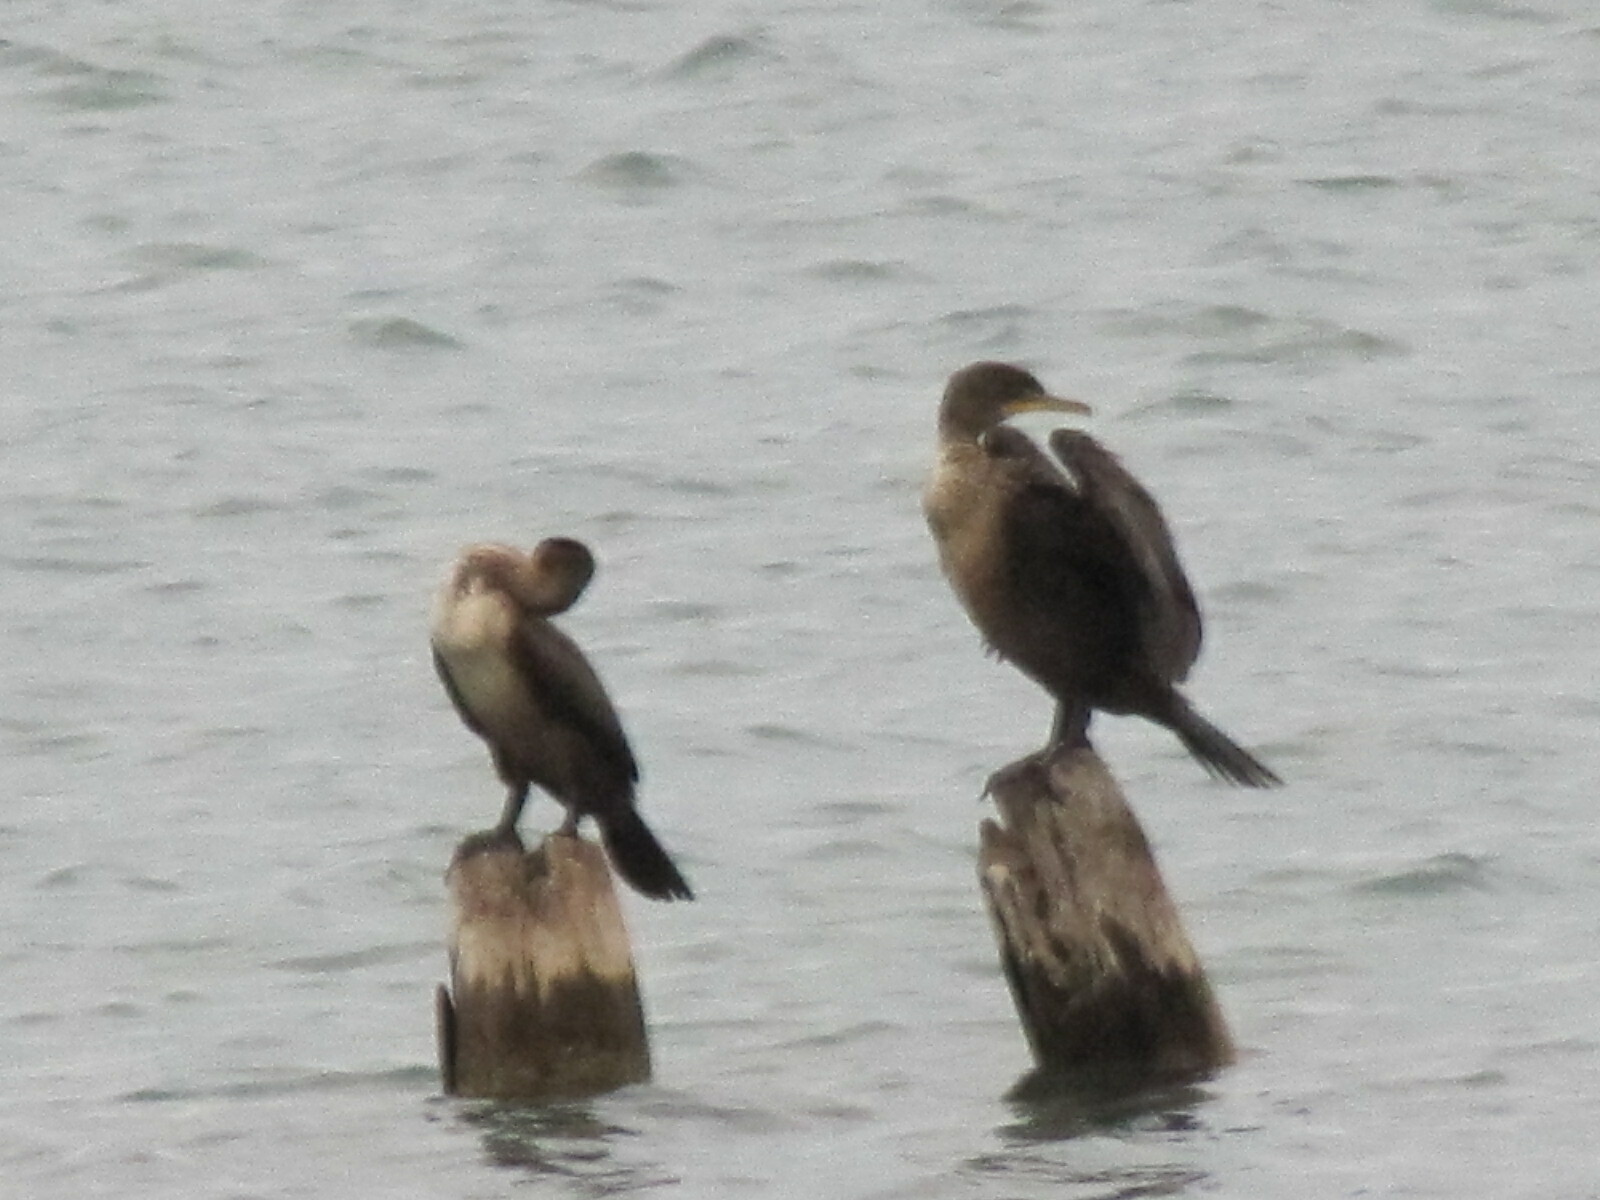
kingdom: Animalia
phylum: Chordata
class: Aves
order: Suliformes
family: Phalacrocoracidae
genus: Phalacrocorax
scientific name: Phalacrocorax auritus
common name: Double-crested cormorant
